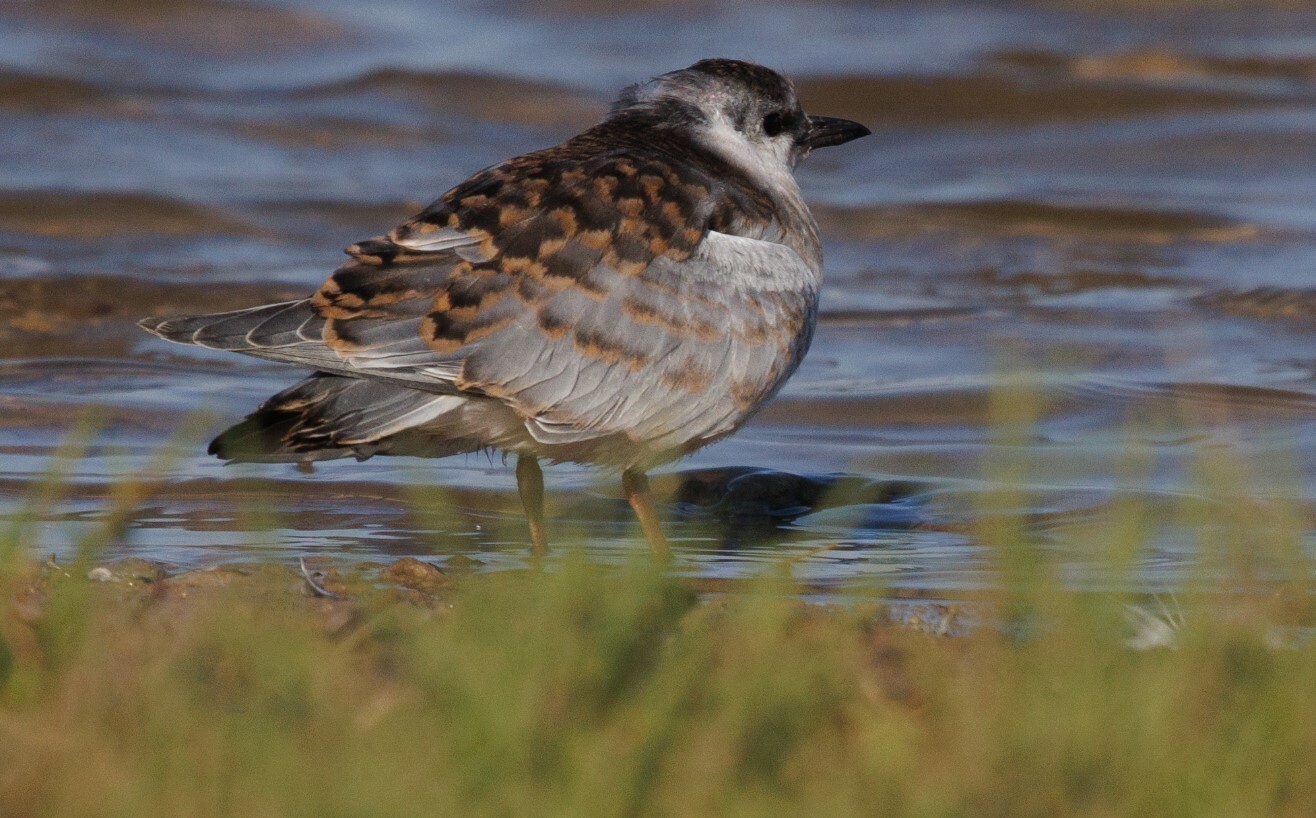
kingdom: Animalia
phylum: Chordata
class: Aves
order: Charadriiformes
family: Laridae
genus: Chlidonias
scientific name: Chlidonias hybrida
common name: Whiskered tern
